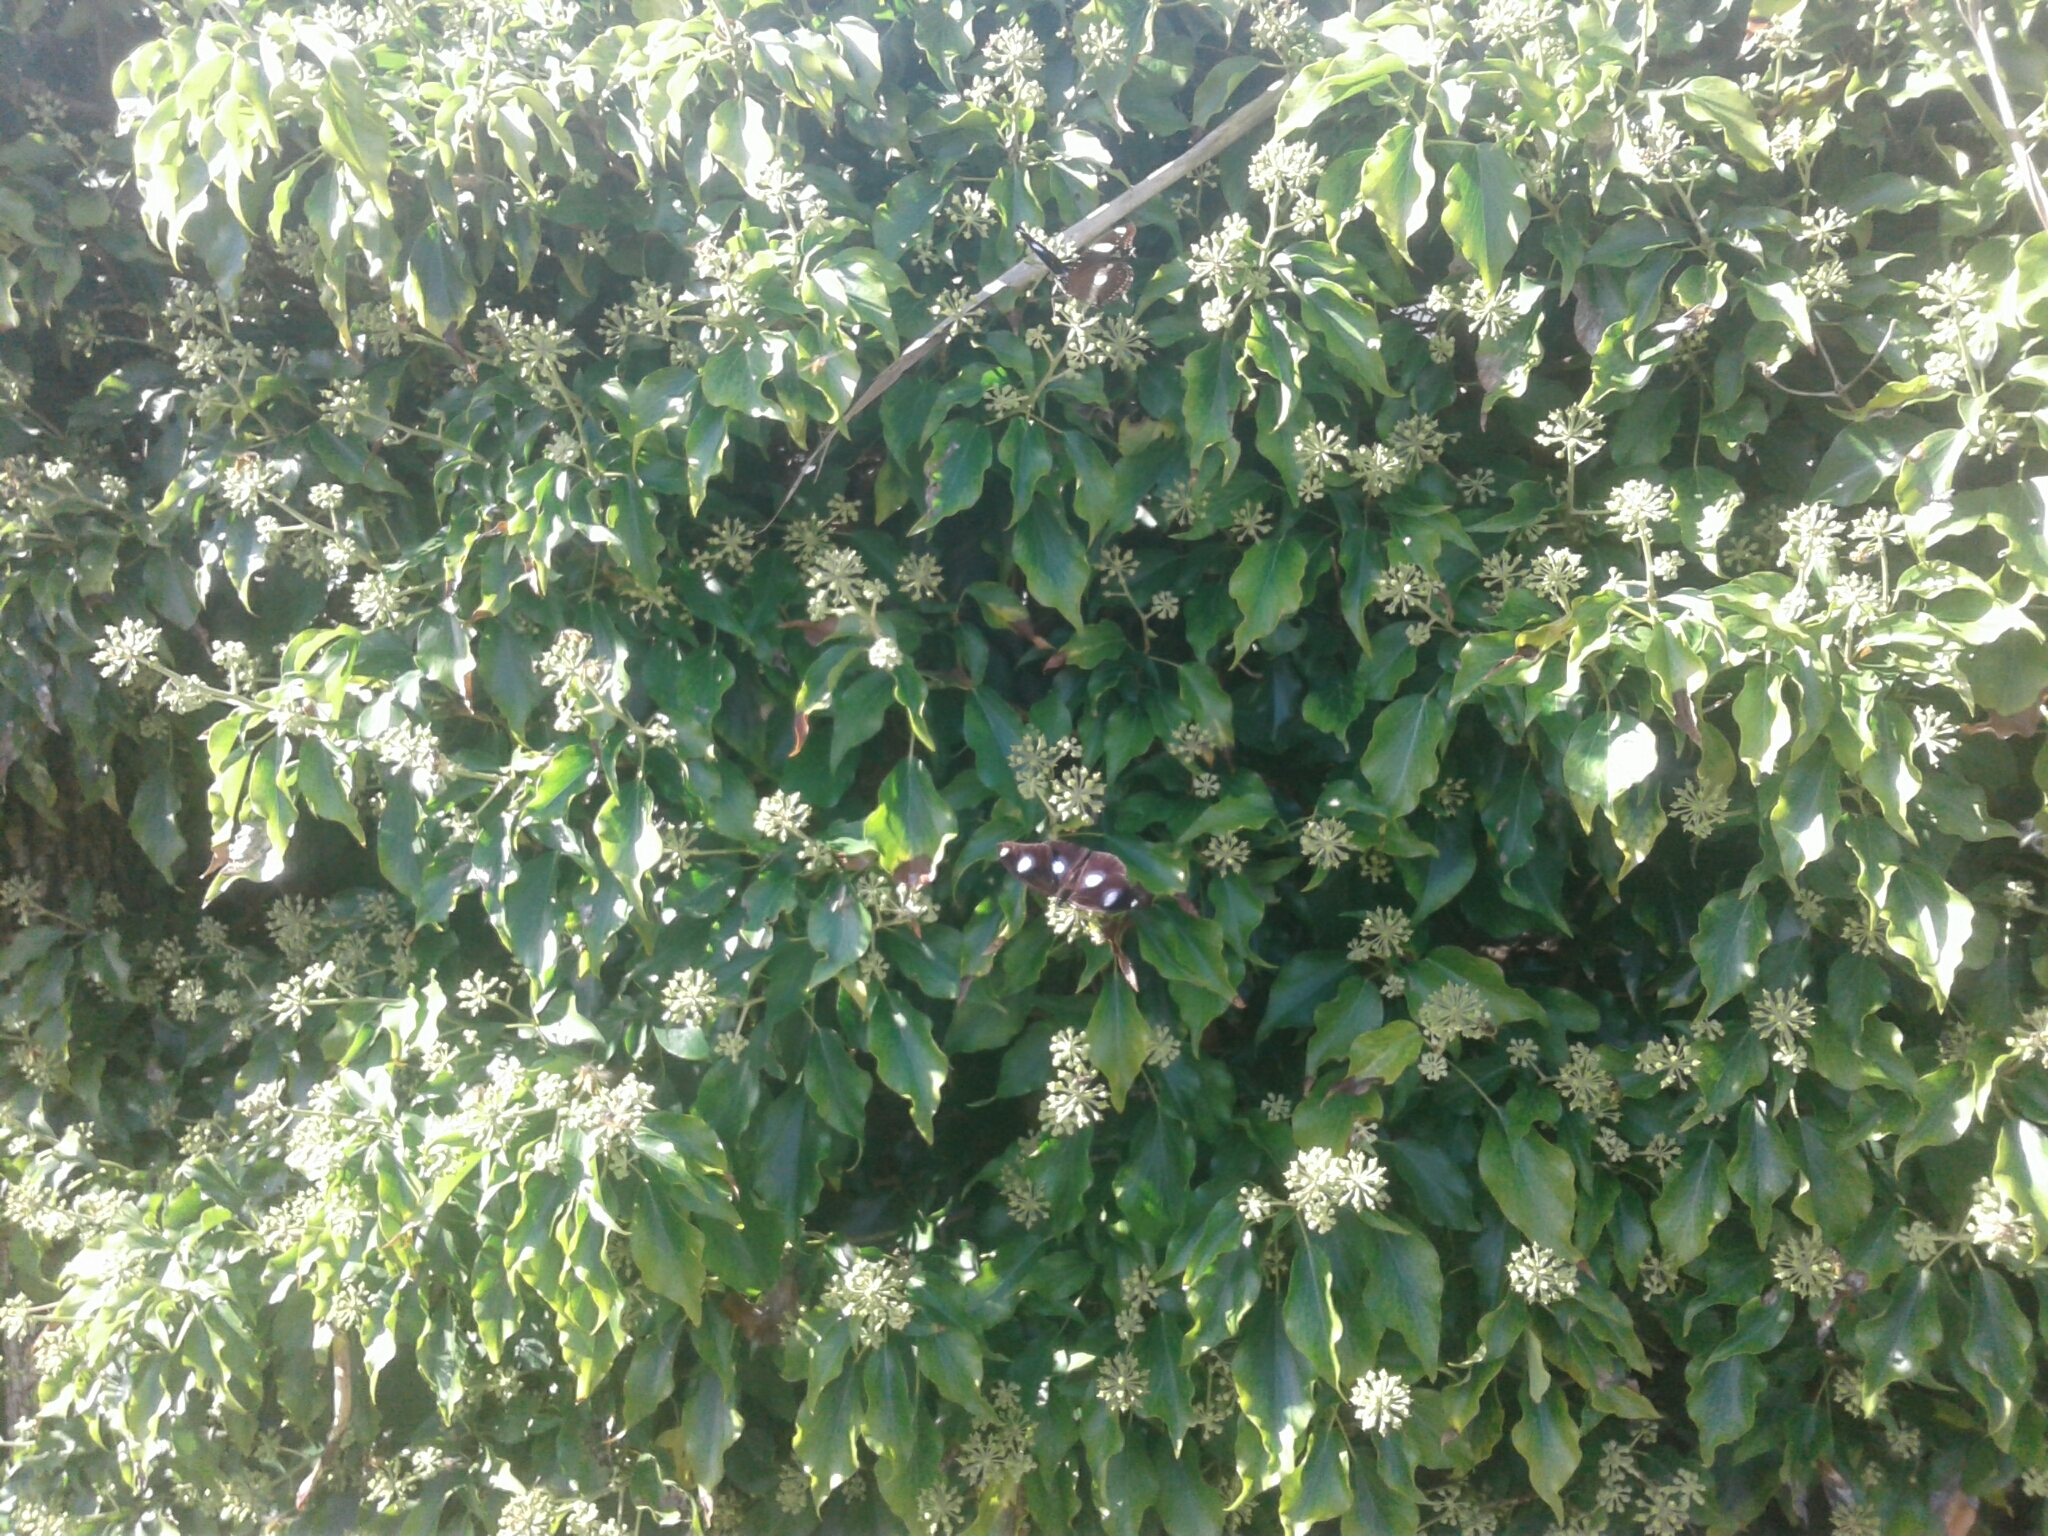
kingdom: Animalia
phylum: Arthropoda
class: Insecta
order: Lepidoptera
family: Nymphalidae
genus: Hypolimnas
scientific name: Hypolimnas bolina
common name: Great eggfly
